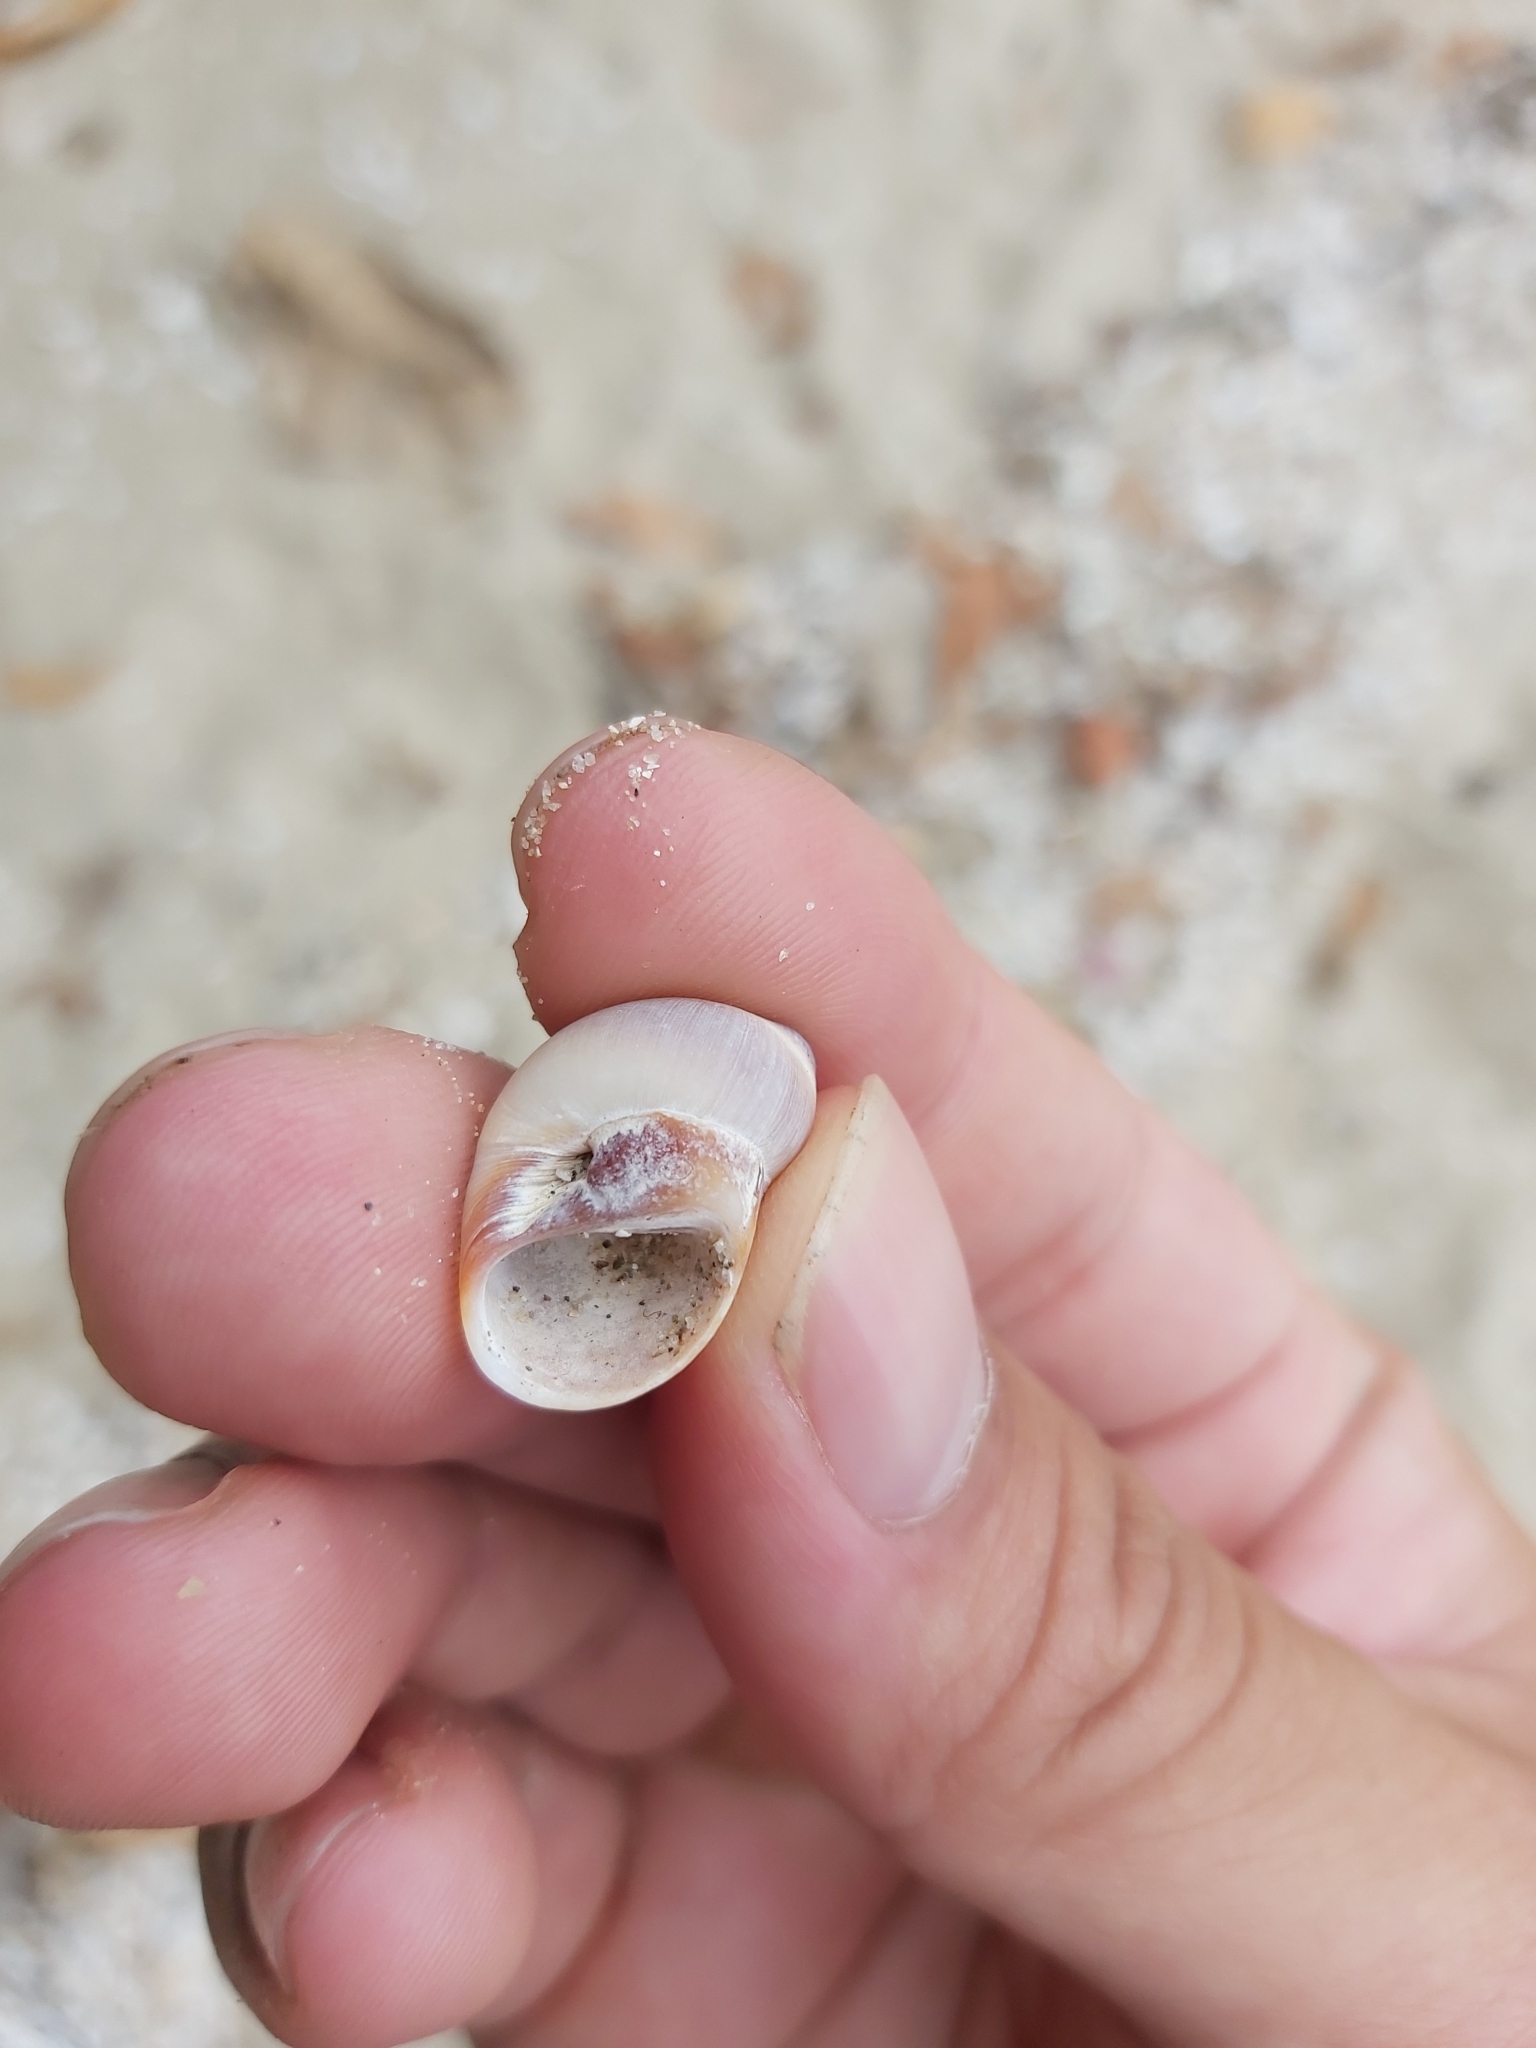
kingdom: Animalia
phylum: Mollusca
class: Gastropoda
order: Littorinimorpha
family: Naticidae
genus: Conuber
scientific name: Conuber conicum
